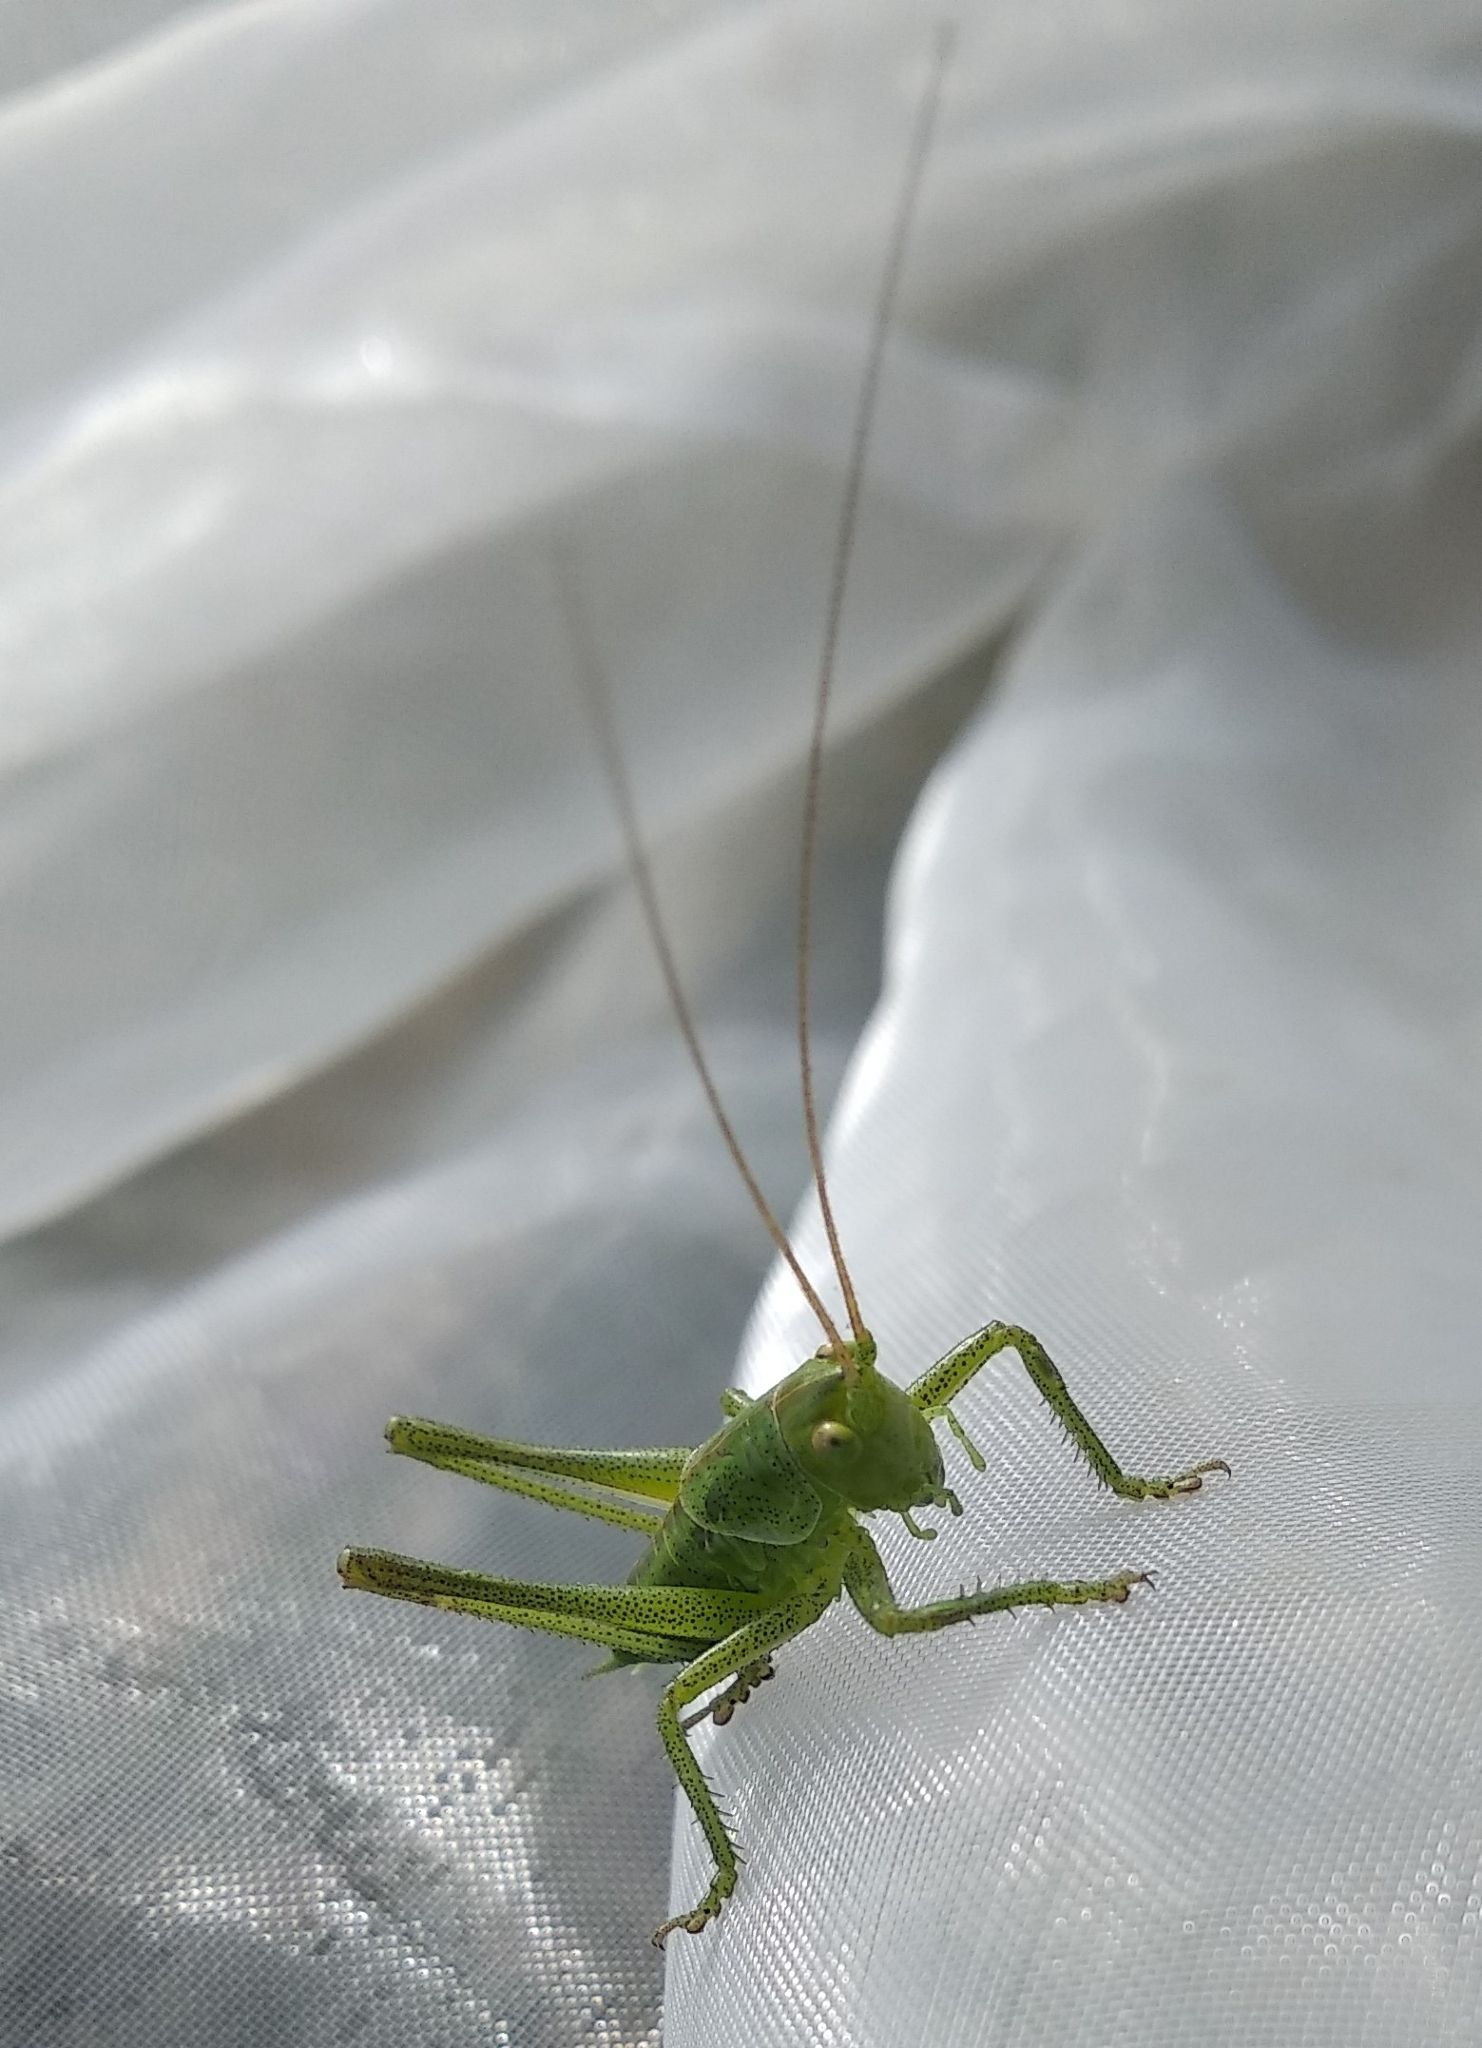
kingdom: Animalia
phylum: Arthropoda
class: Insecta
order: Orthoptera
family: Tettigoniidae
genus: Tettigonia
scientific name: Tettigonia viridissima
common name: Great green bush-cricket
